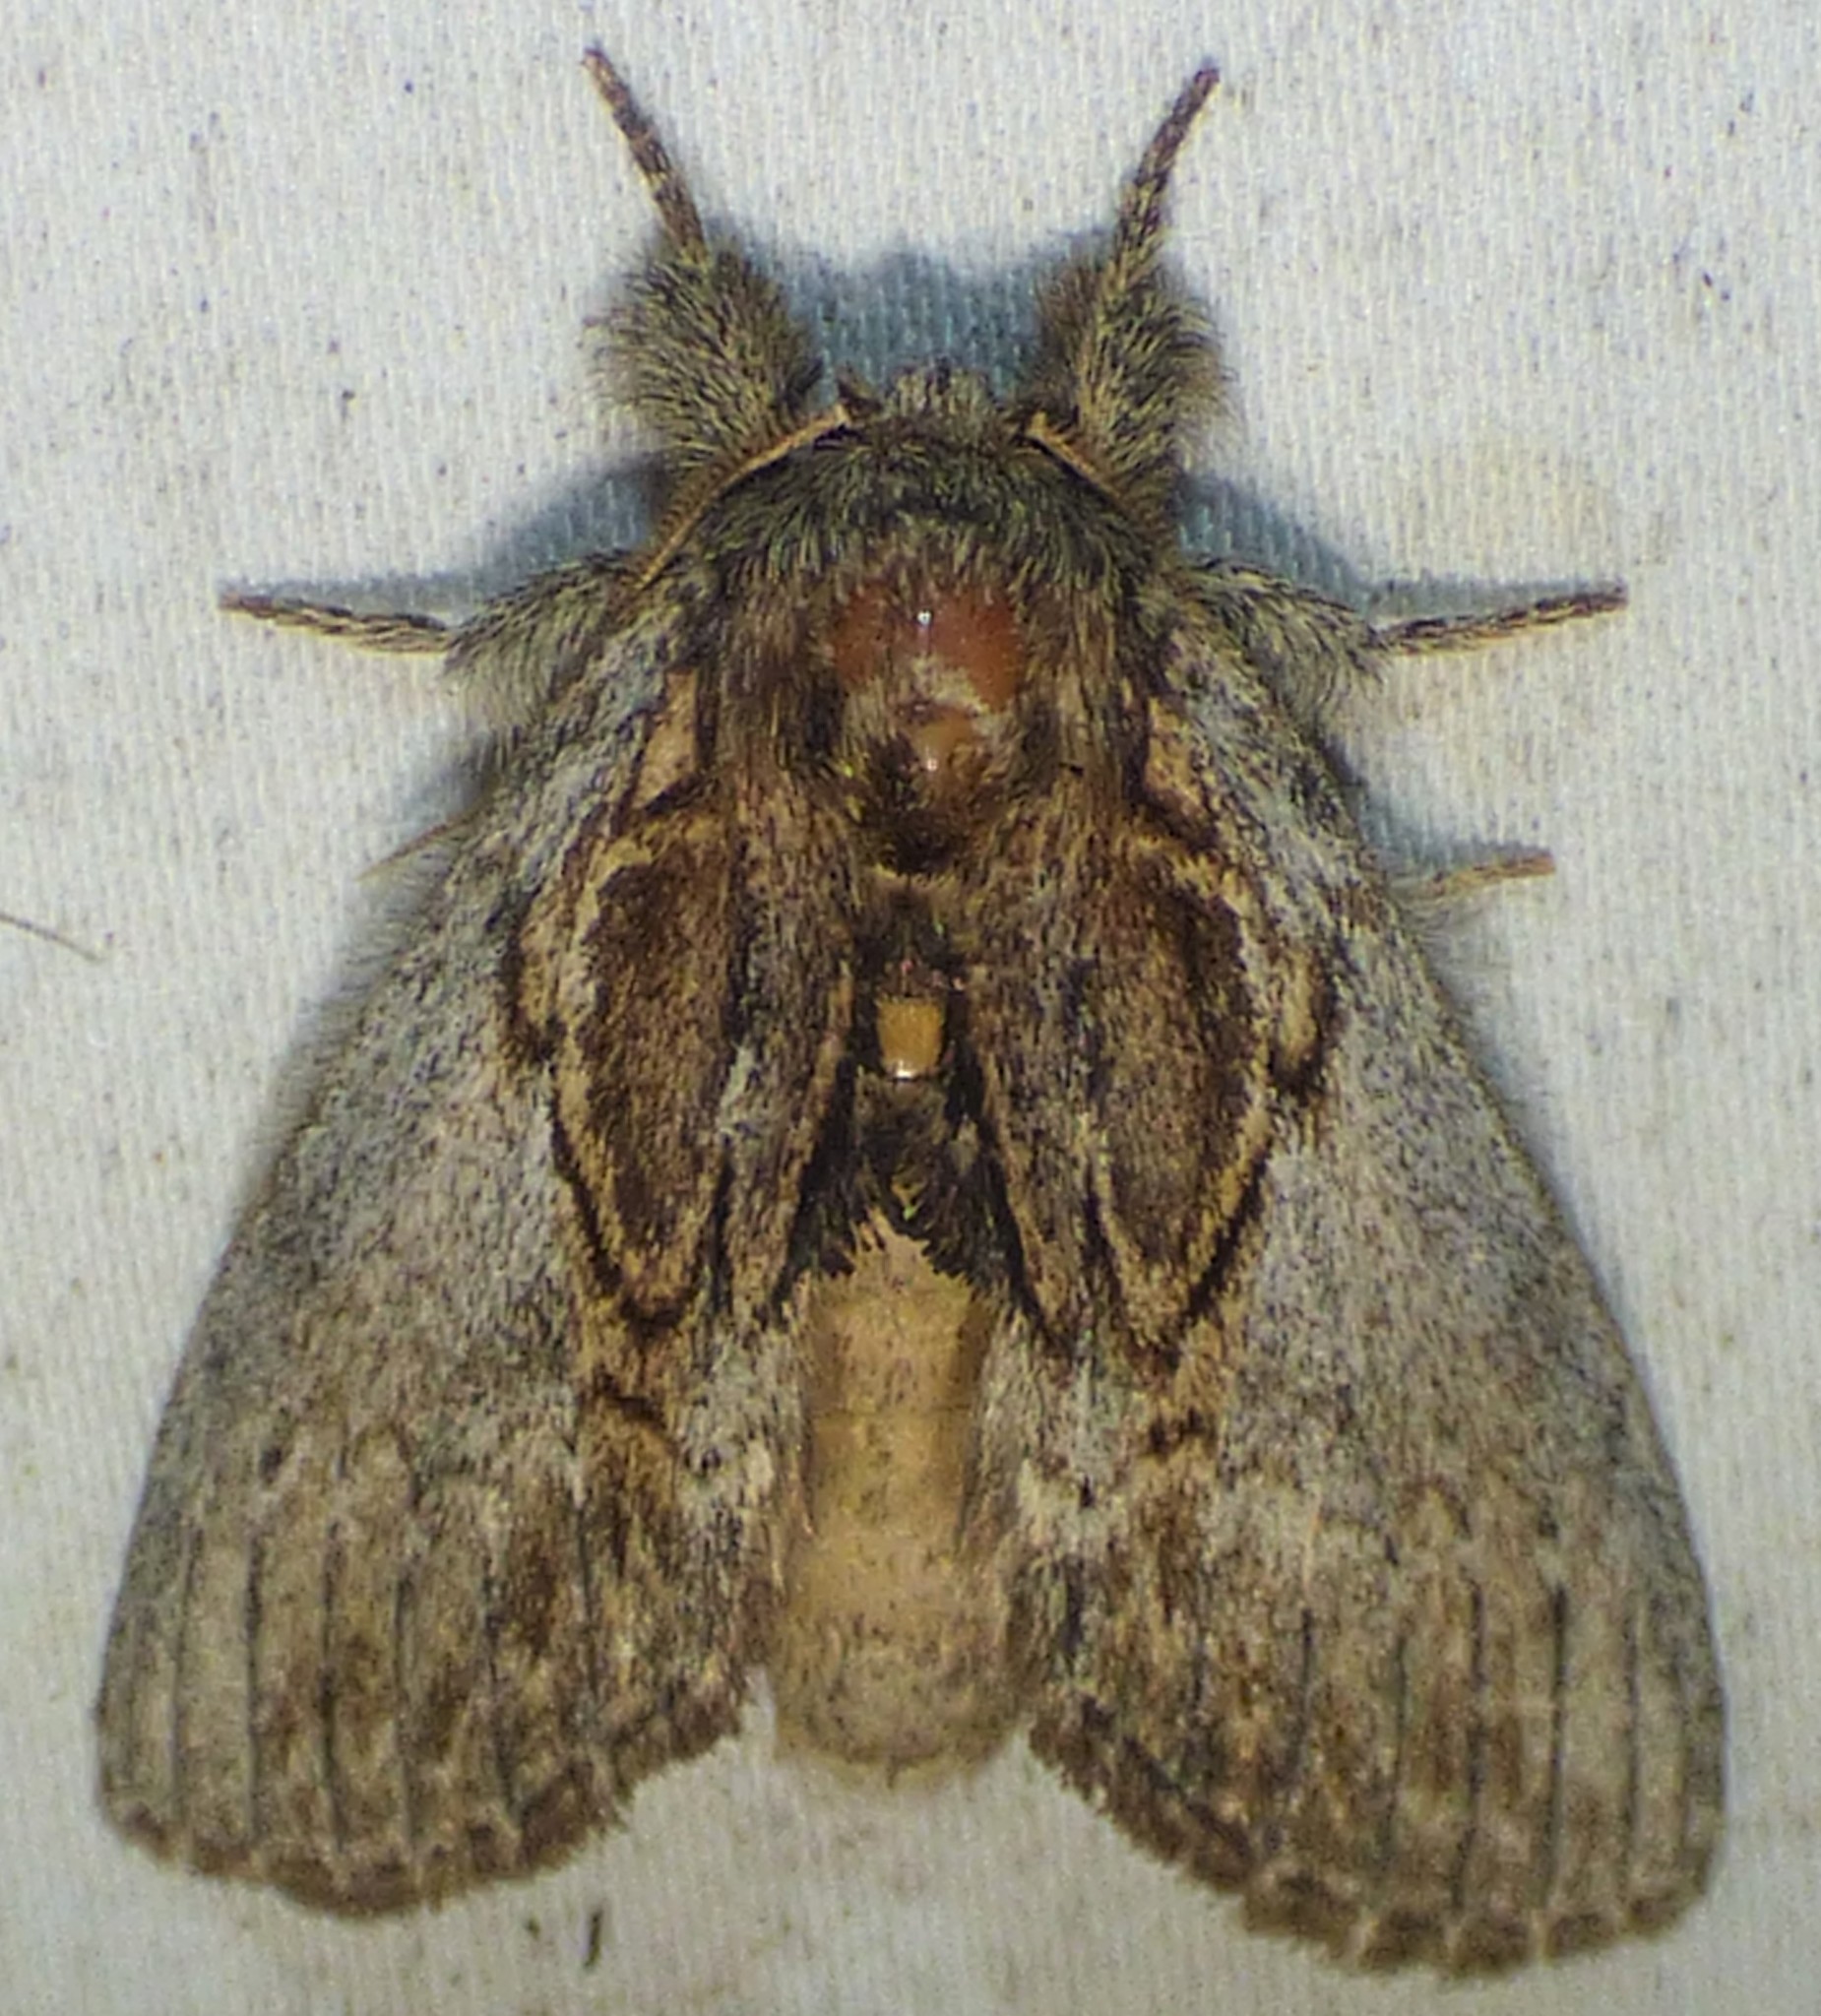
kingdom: Animalia
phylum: Arthropoda
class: Insecta
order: Lepidoptera
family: Notodontidae
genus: Peridea
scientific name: Peridea basitriens
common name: Oval-based prominent
